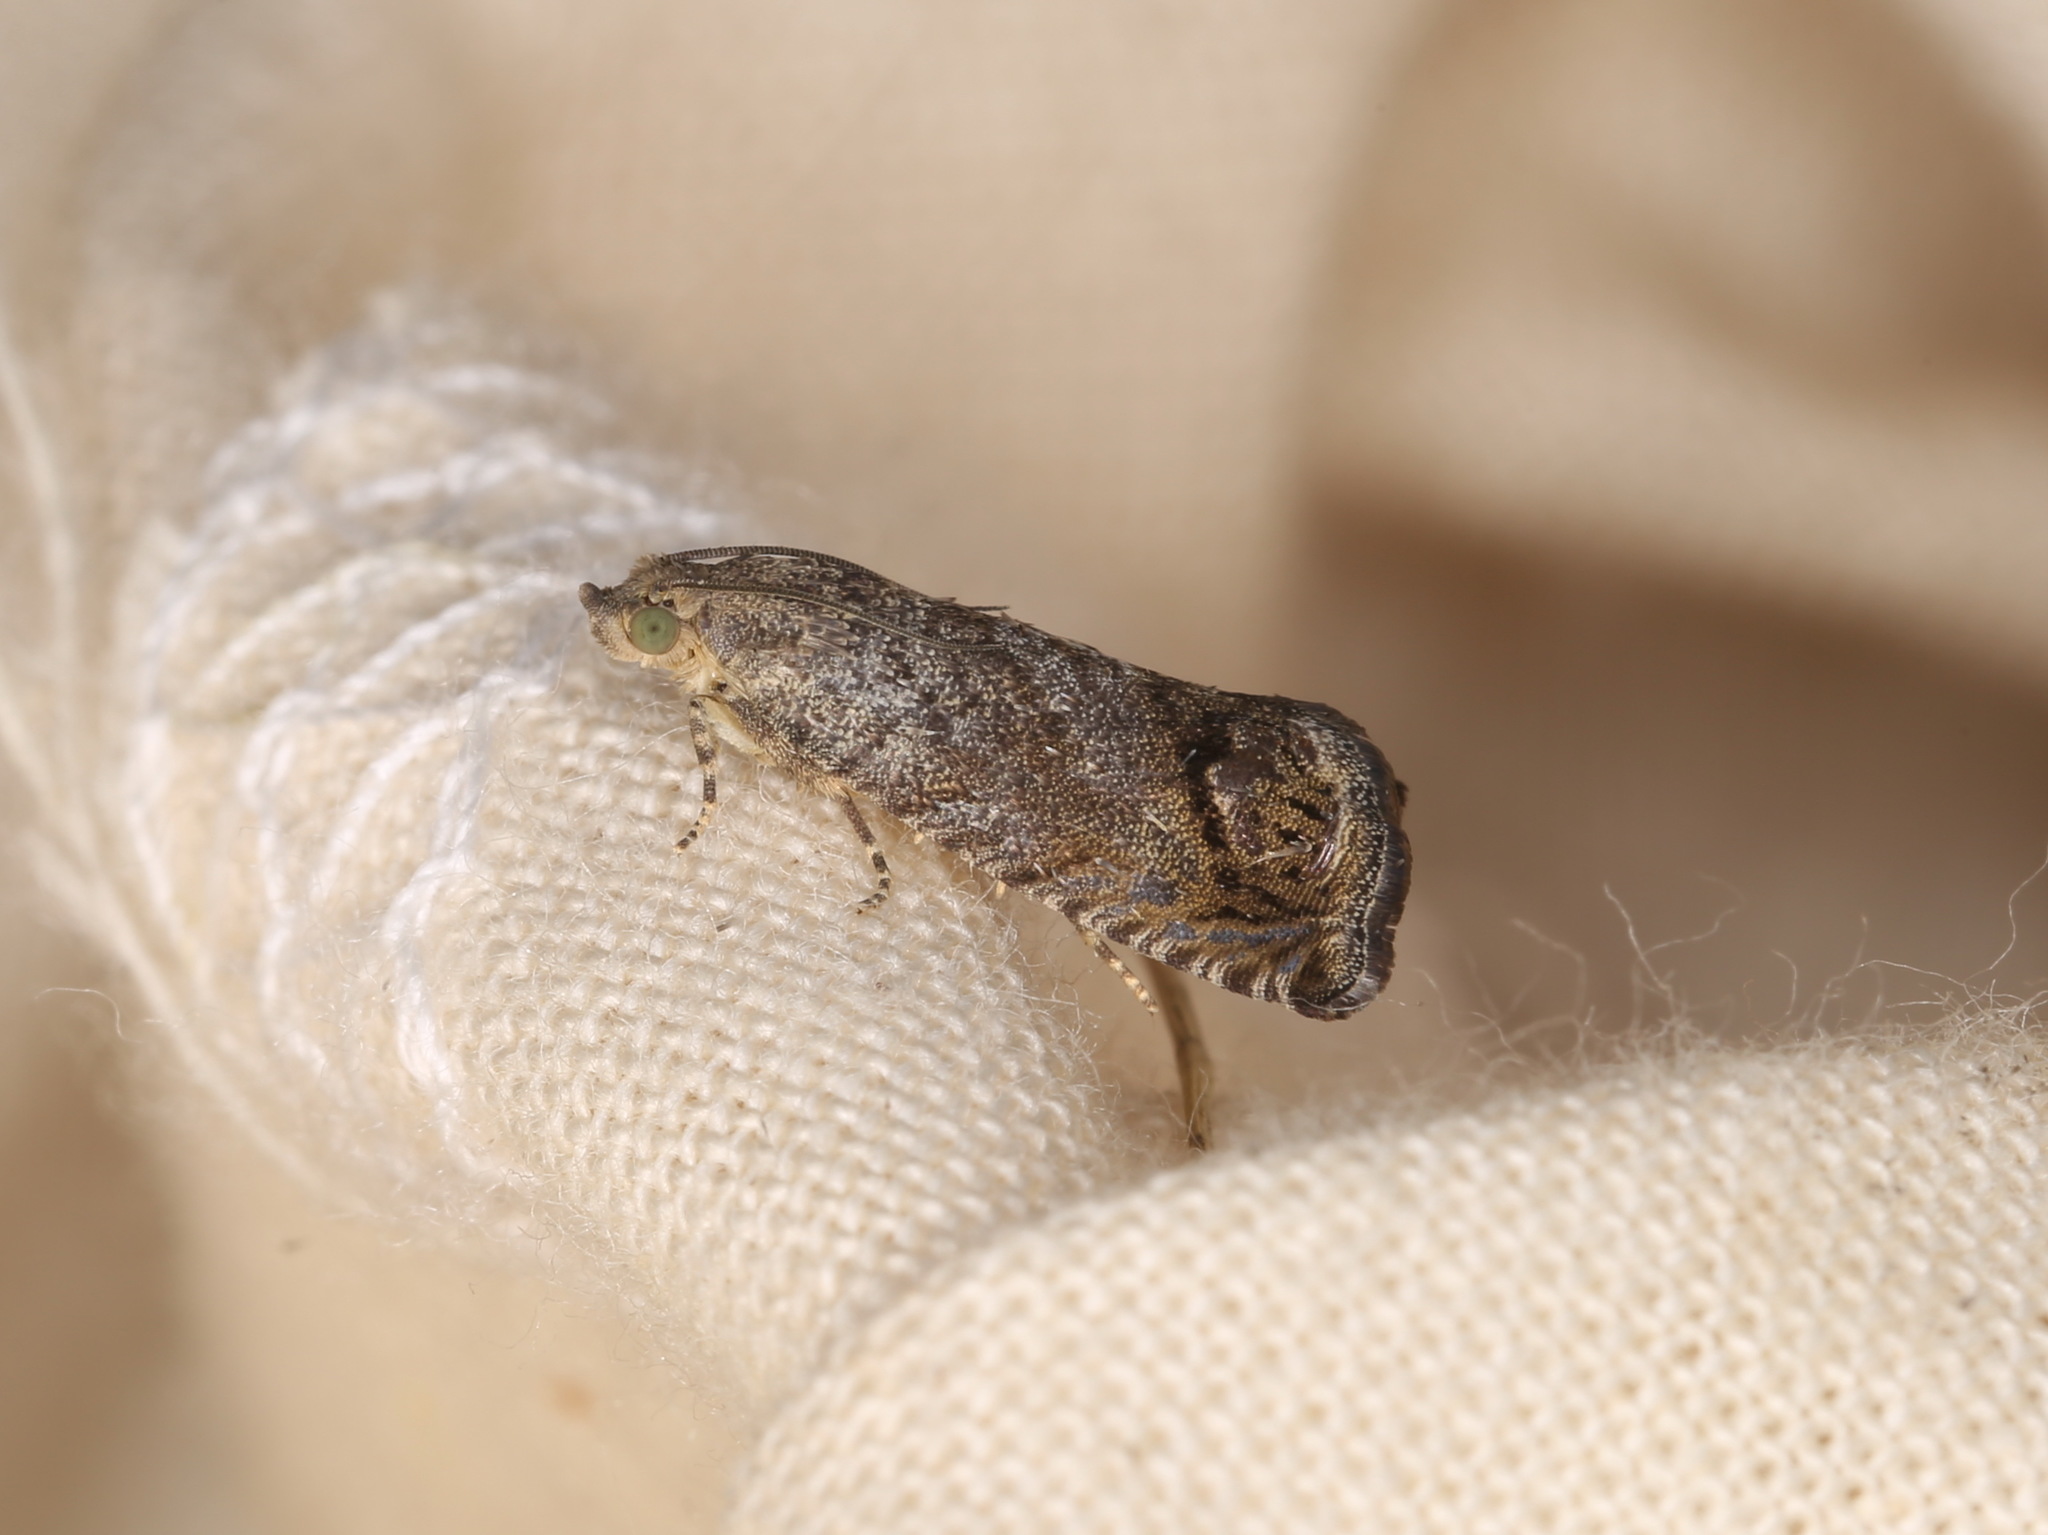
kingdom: Animalia
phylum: Arthropoda
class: Insecta
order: Lepidoptera
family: Tortricidae
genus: Cydia
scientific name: Cydia splendana
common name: De: kastanienwickler, eichenwickler es: oruga de la castaña fr: carpocapse des châtaignes it: cidia o tortrice tardiva delle castagne pt: bichado das castanhas gb: acorn moth, chestnut fruit tortrix
